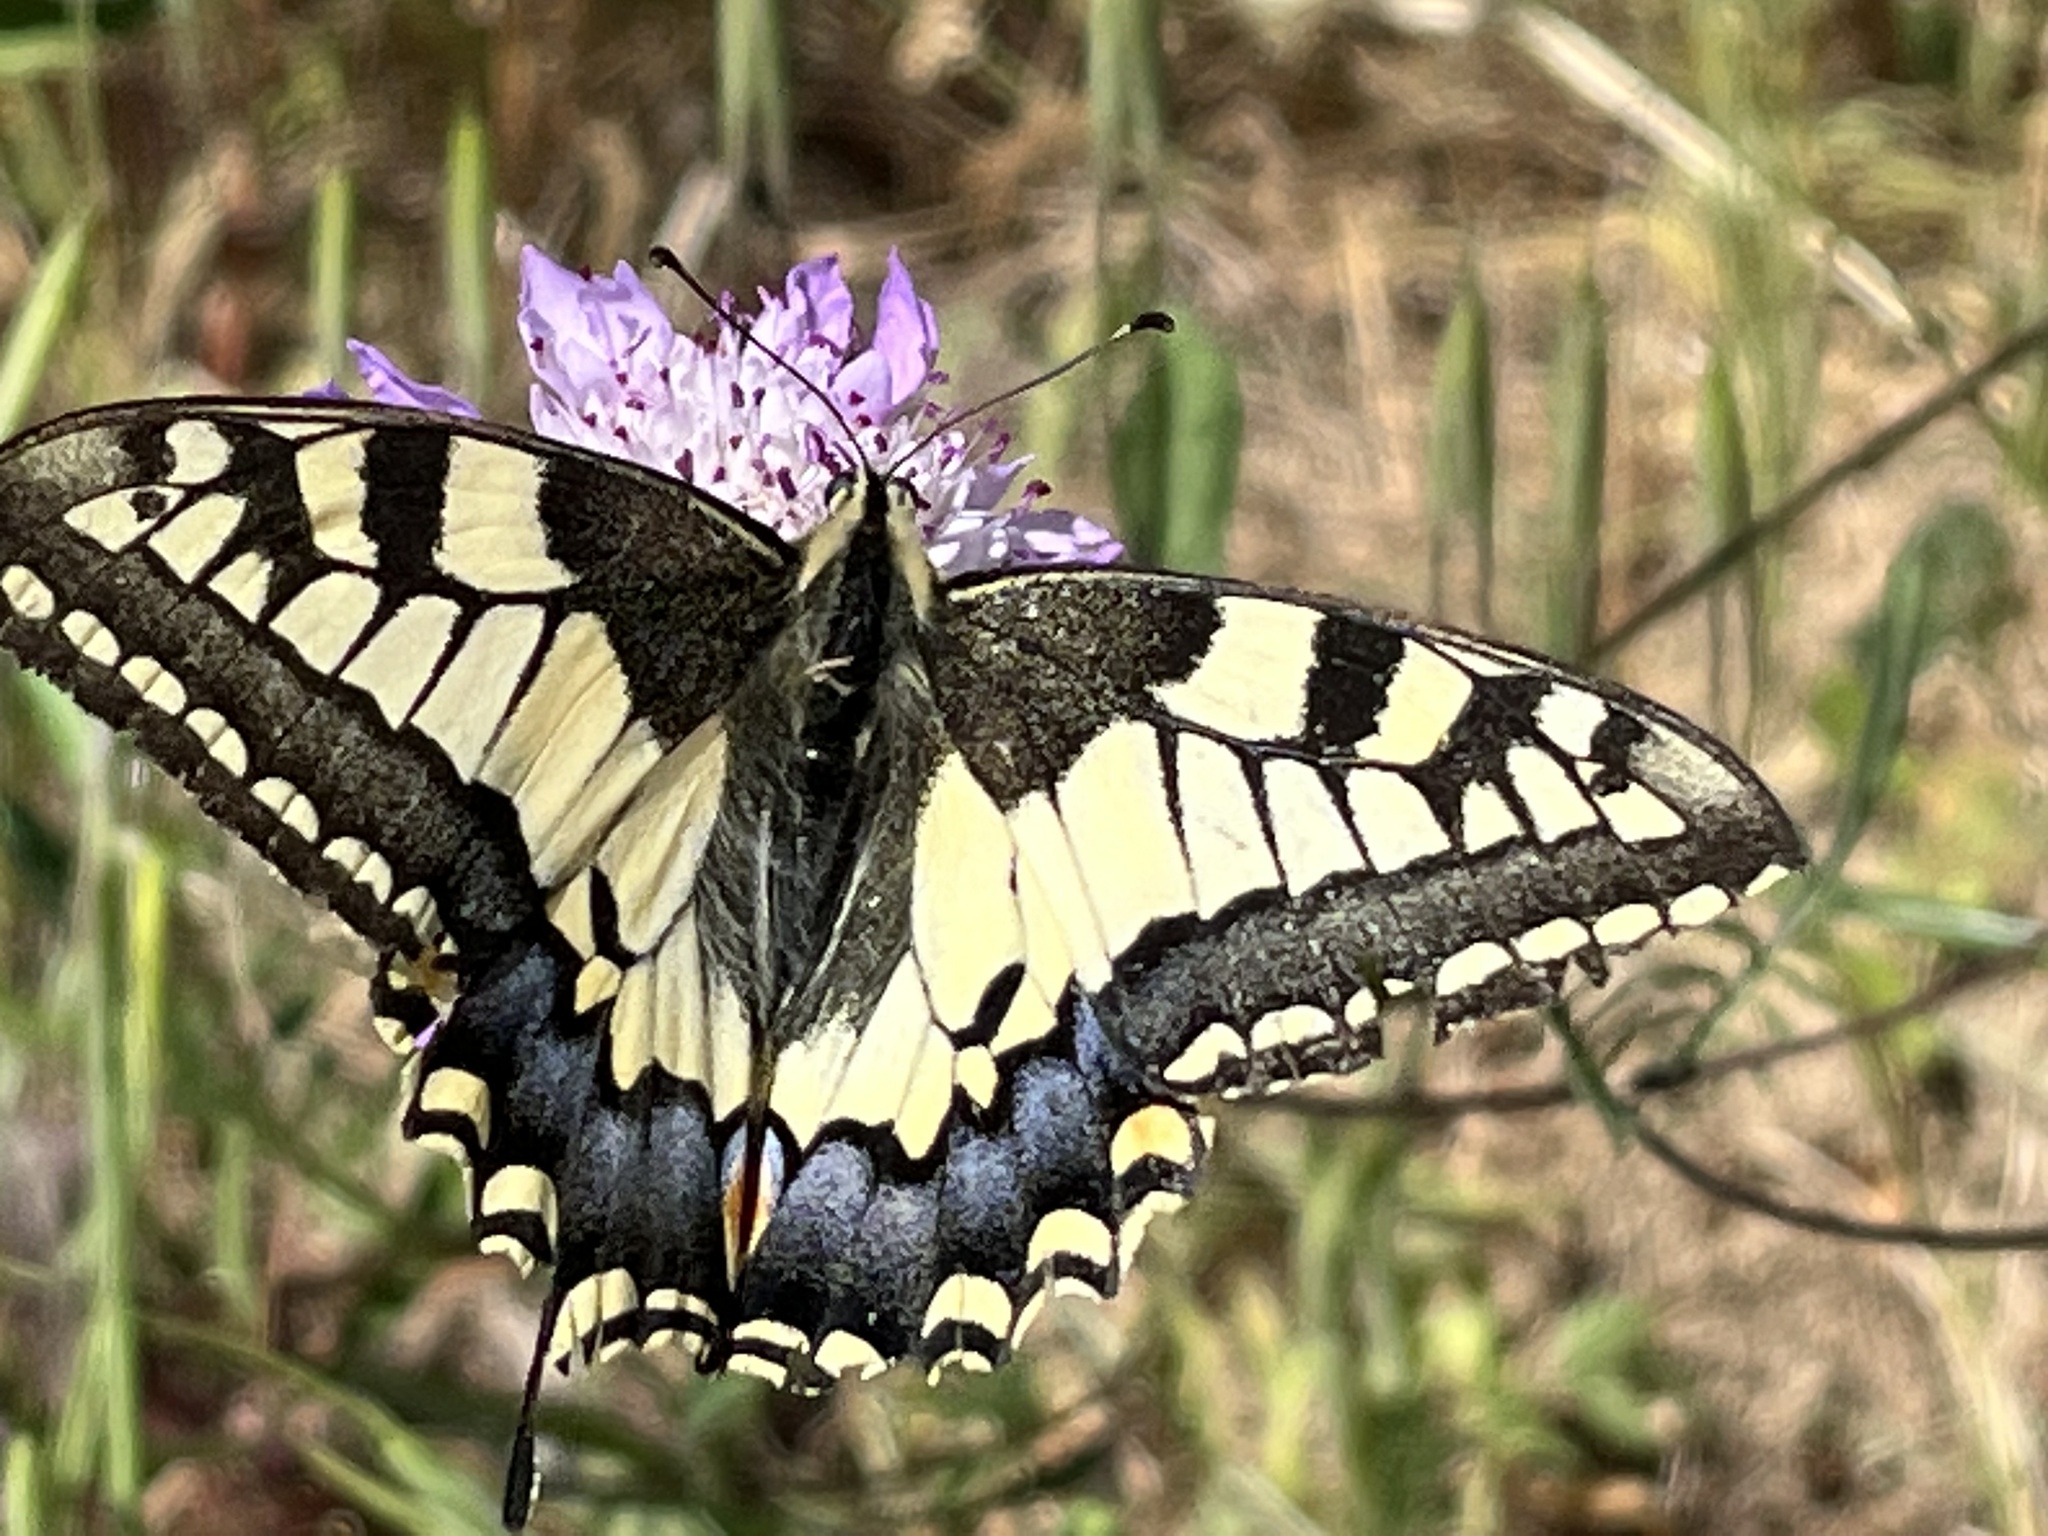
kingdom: Animalia
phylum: Arthropoda
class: Insecta
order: Lepidoptera
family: Papilionidae
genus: Papilio
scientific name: Papilio machaon
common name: Swallowtail
